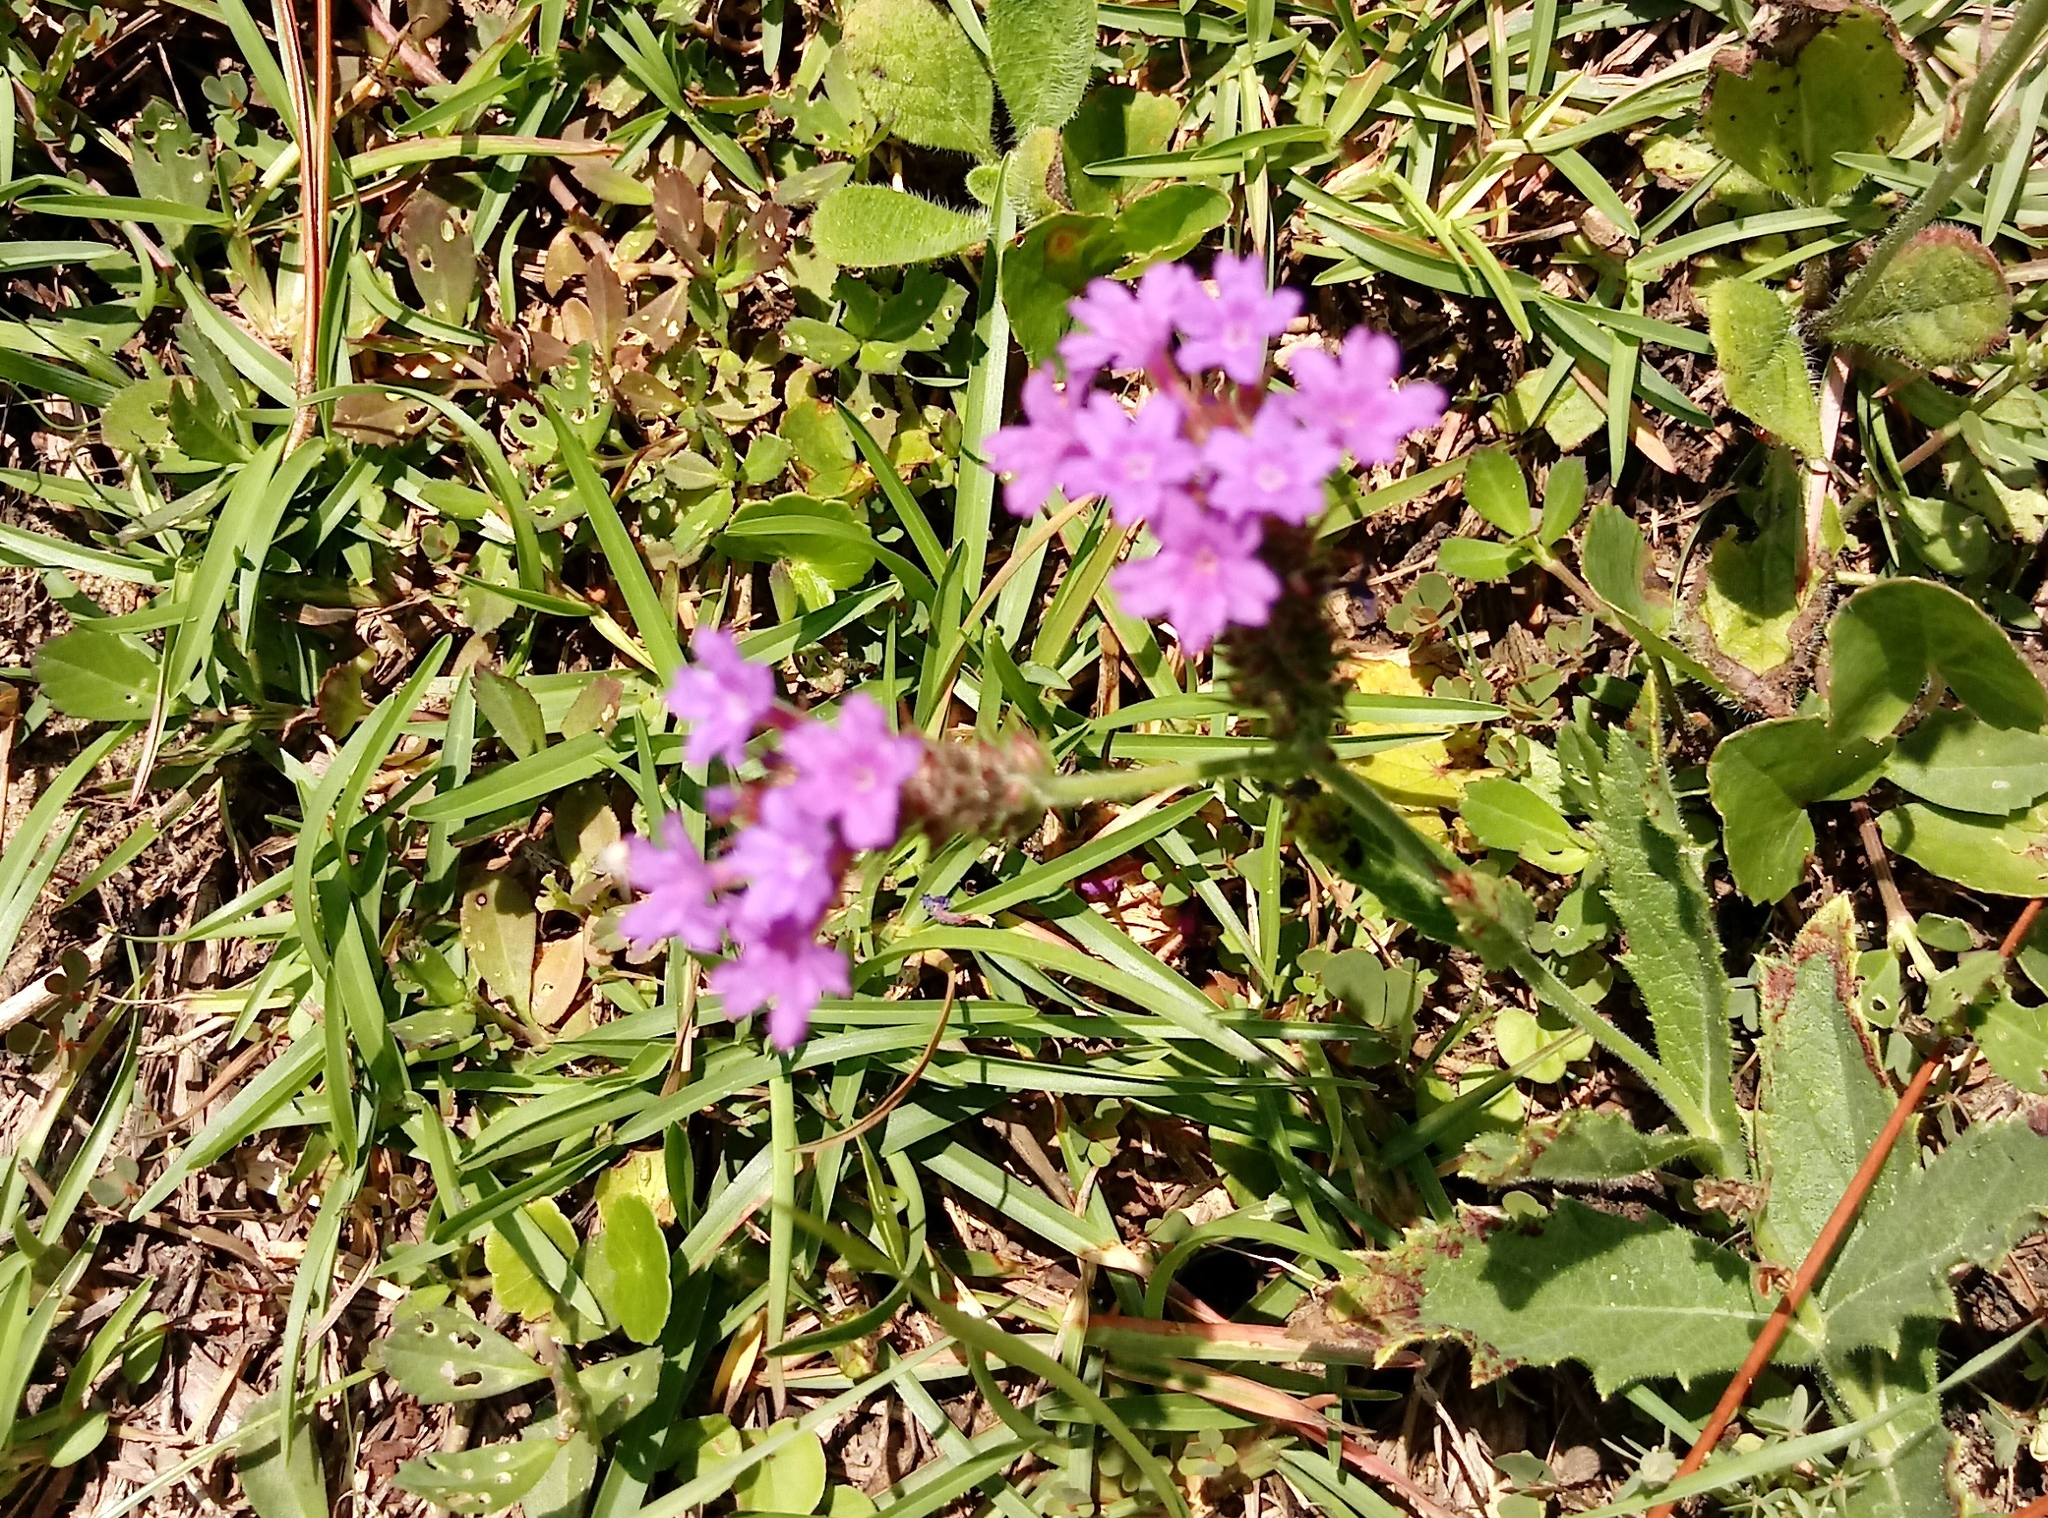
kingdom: Plantae
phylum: Tracheophyta
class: Magnoliopsida
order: Lamiales
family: Verbenaceae
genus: Verbena
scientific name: Verbena rigida
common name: Slender vervain
